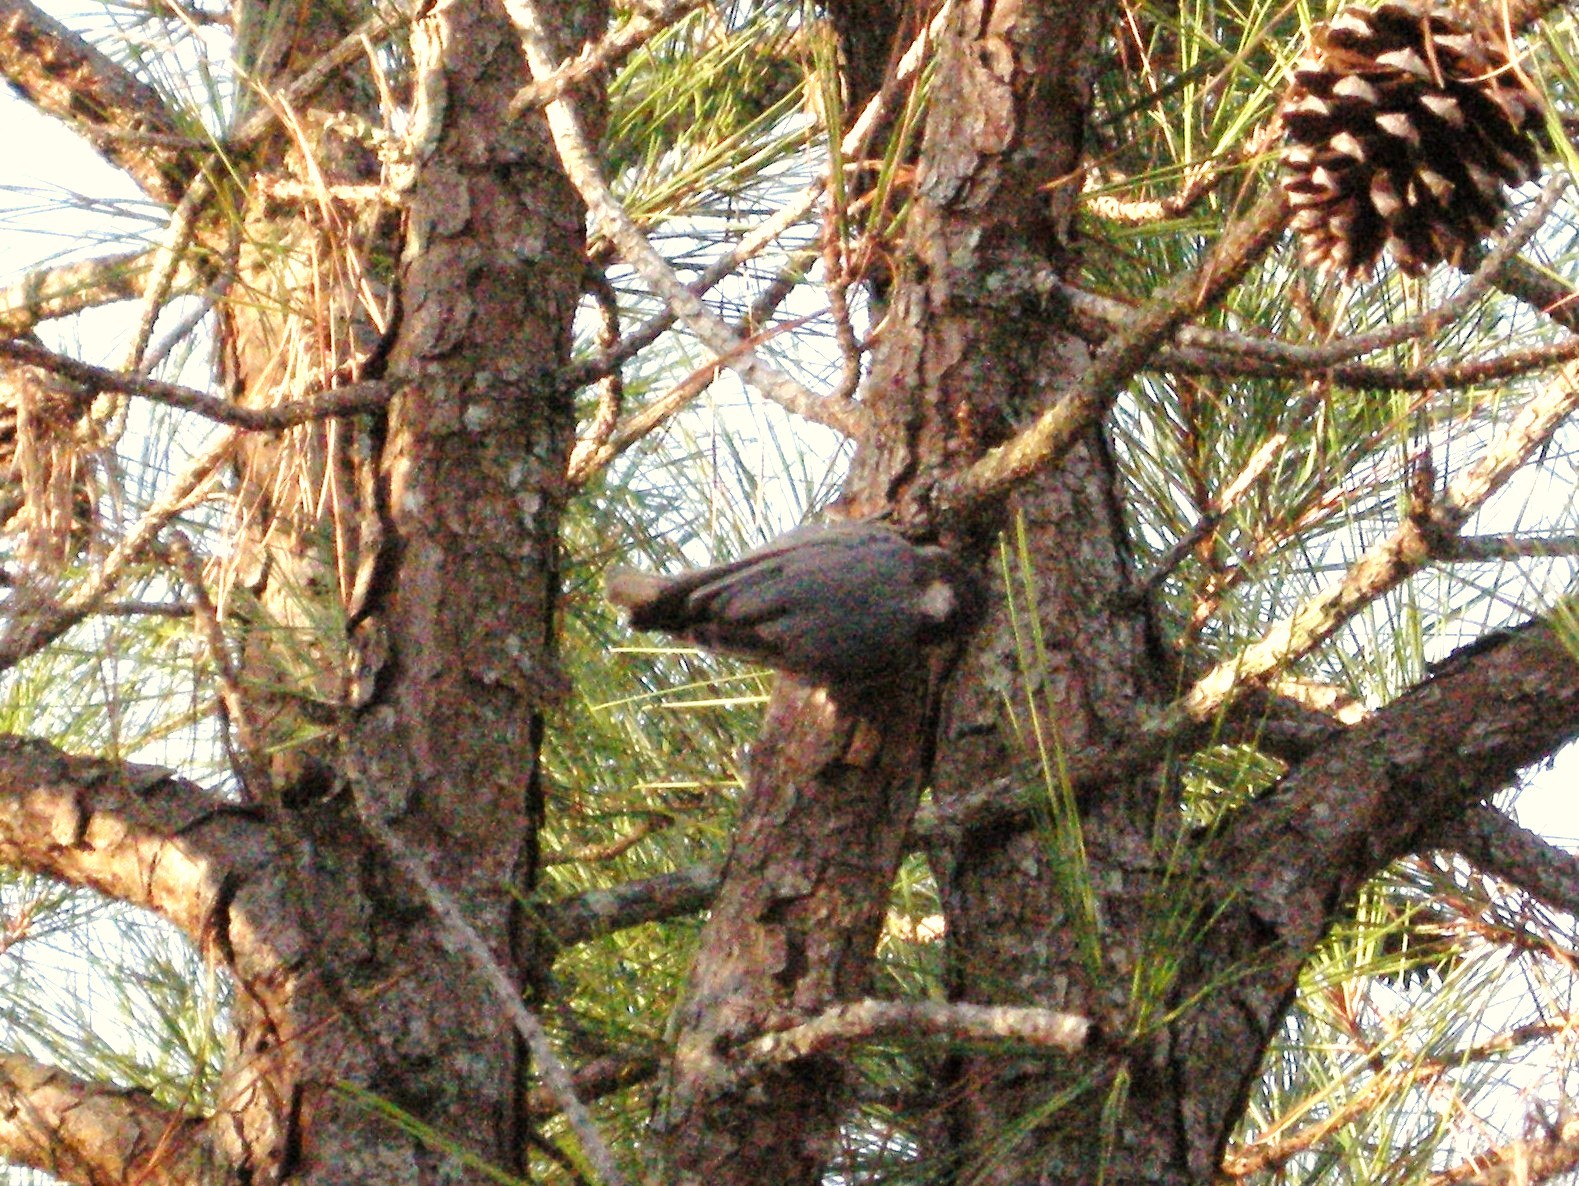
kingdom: Animalia
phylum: Chordata
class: Aves
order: Passeriformes
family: Sittidae
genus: Sitta
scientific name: Sitta pusilla
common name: Brown-headed nuthatch
